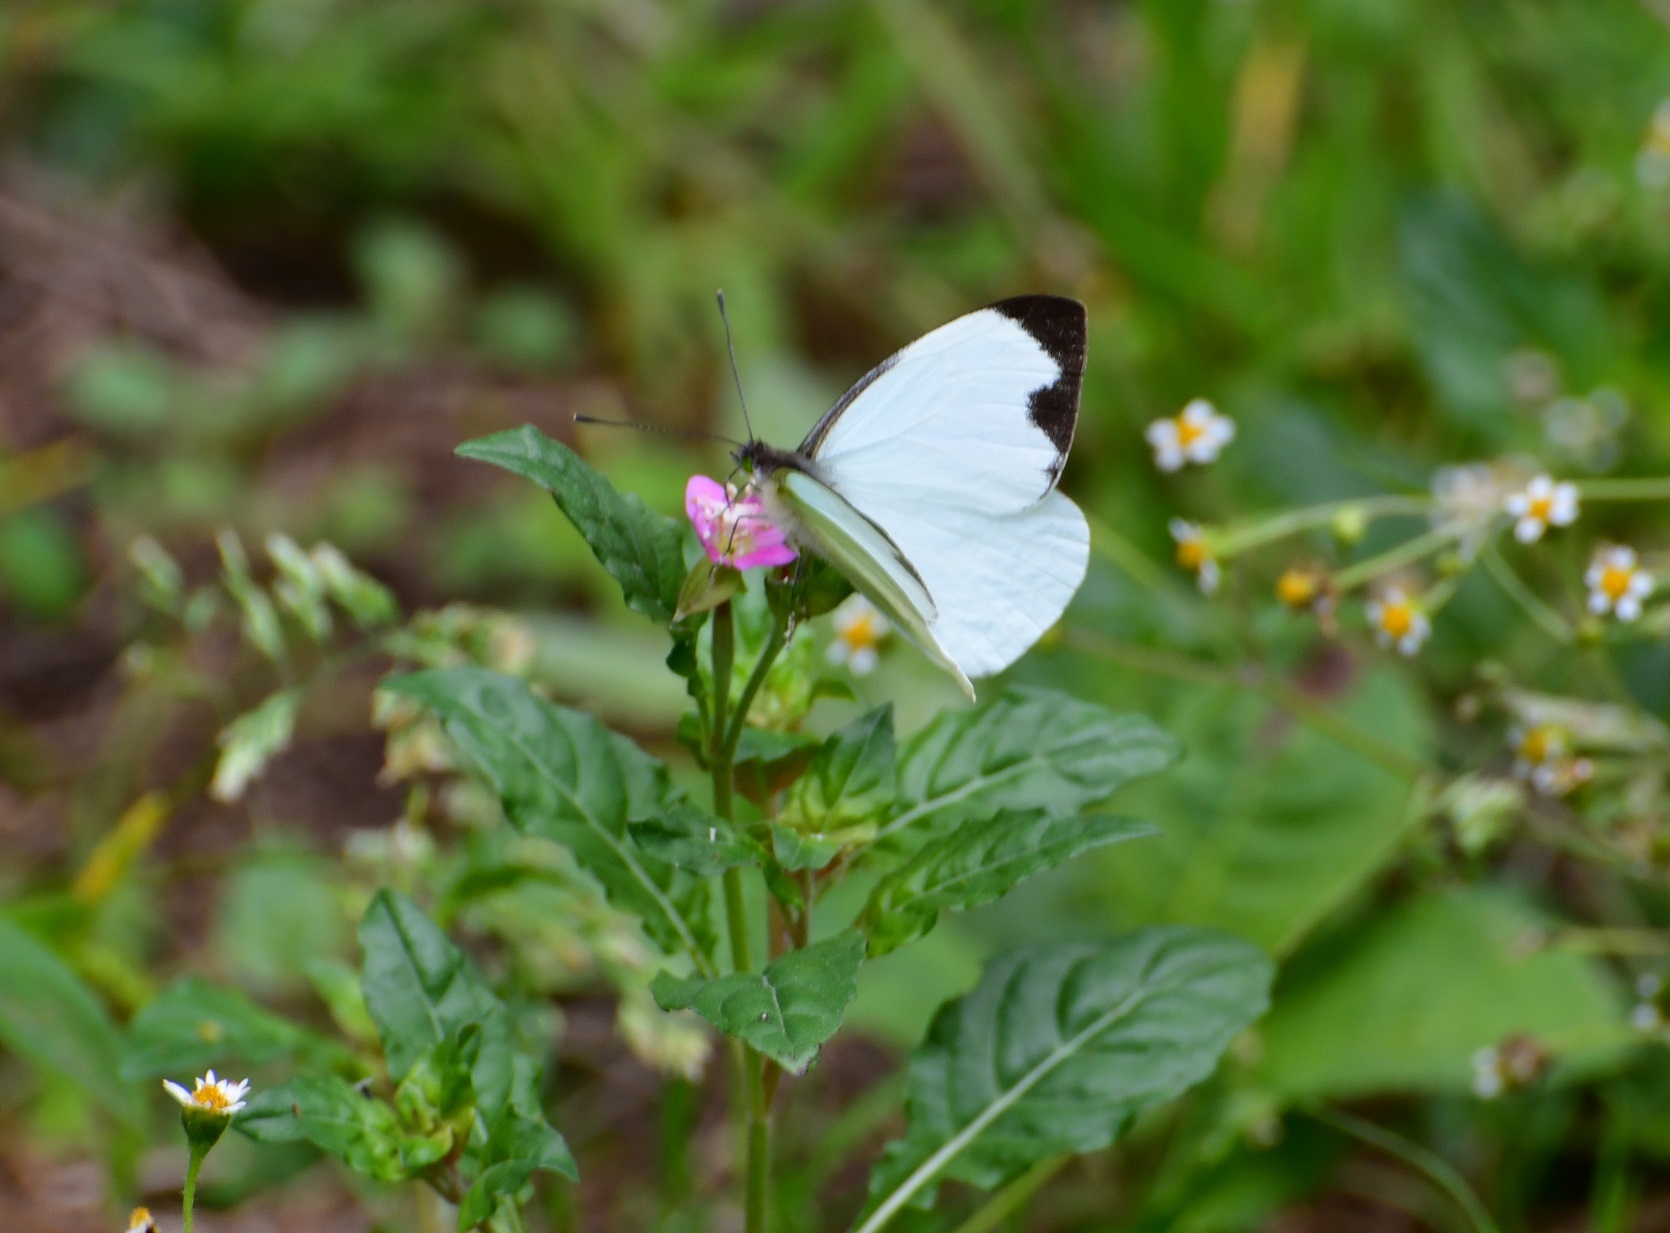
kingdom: Animalia
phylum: Arthropoda
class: Insecta
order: Lepidoptera
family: Pieridae
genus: Leptophobia
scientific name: Leptophobia aripa
